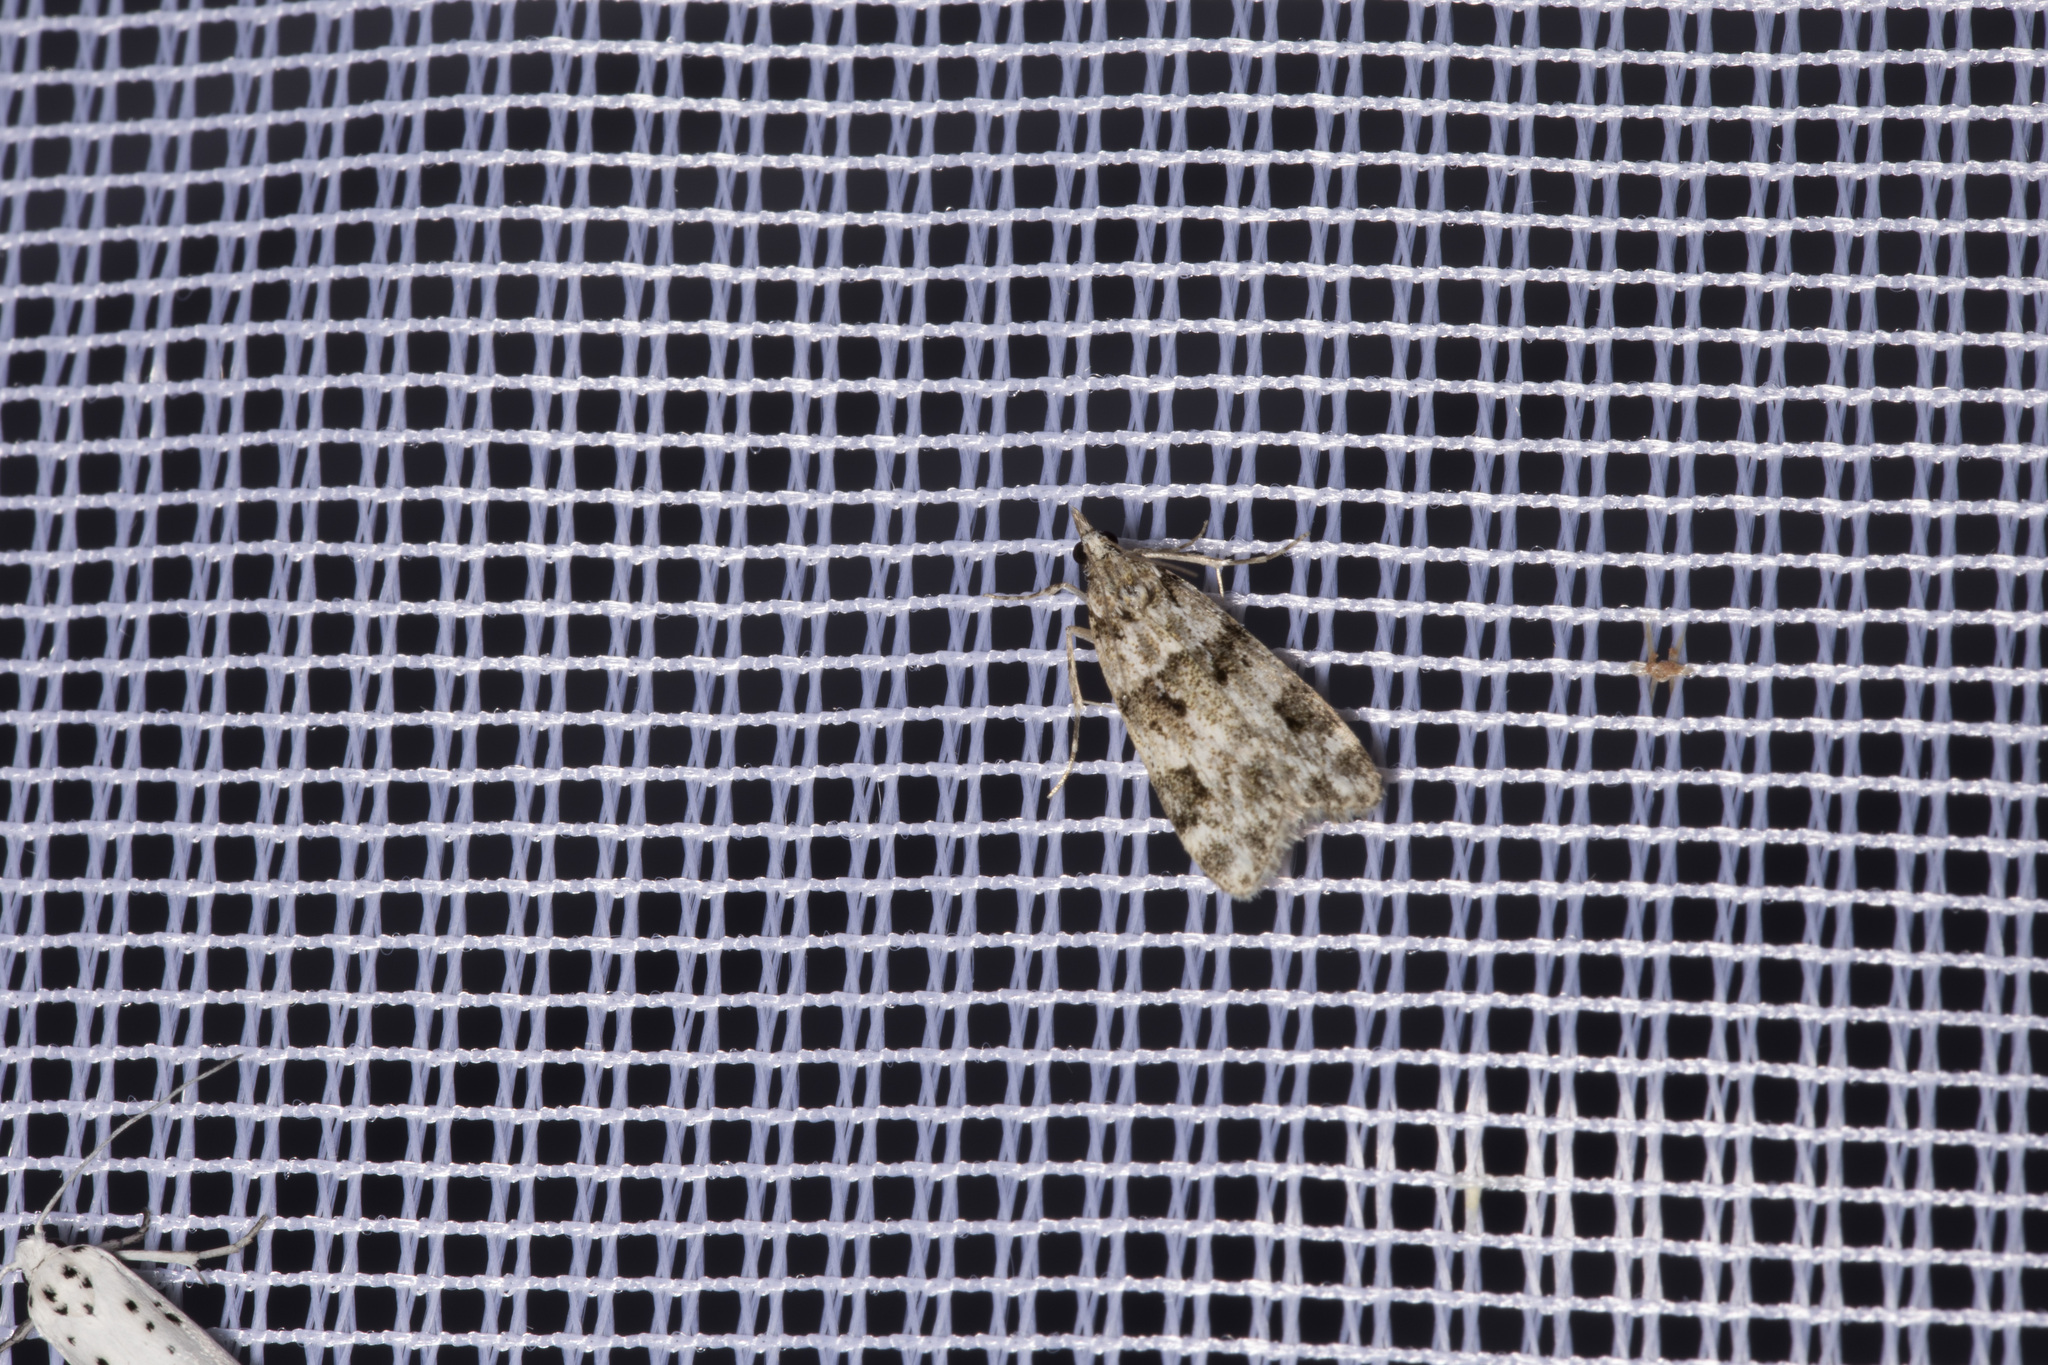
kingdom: Animalia
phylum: Arthropoda
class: Insecta
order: Lepidoptera
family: Crambidae
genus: Eudonia
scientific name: Eudonia delunella
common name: Pied grey
